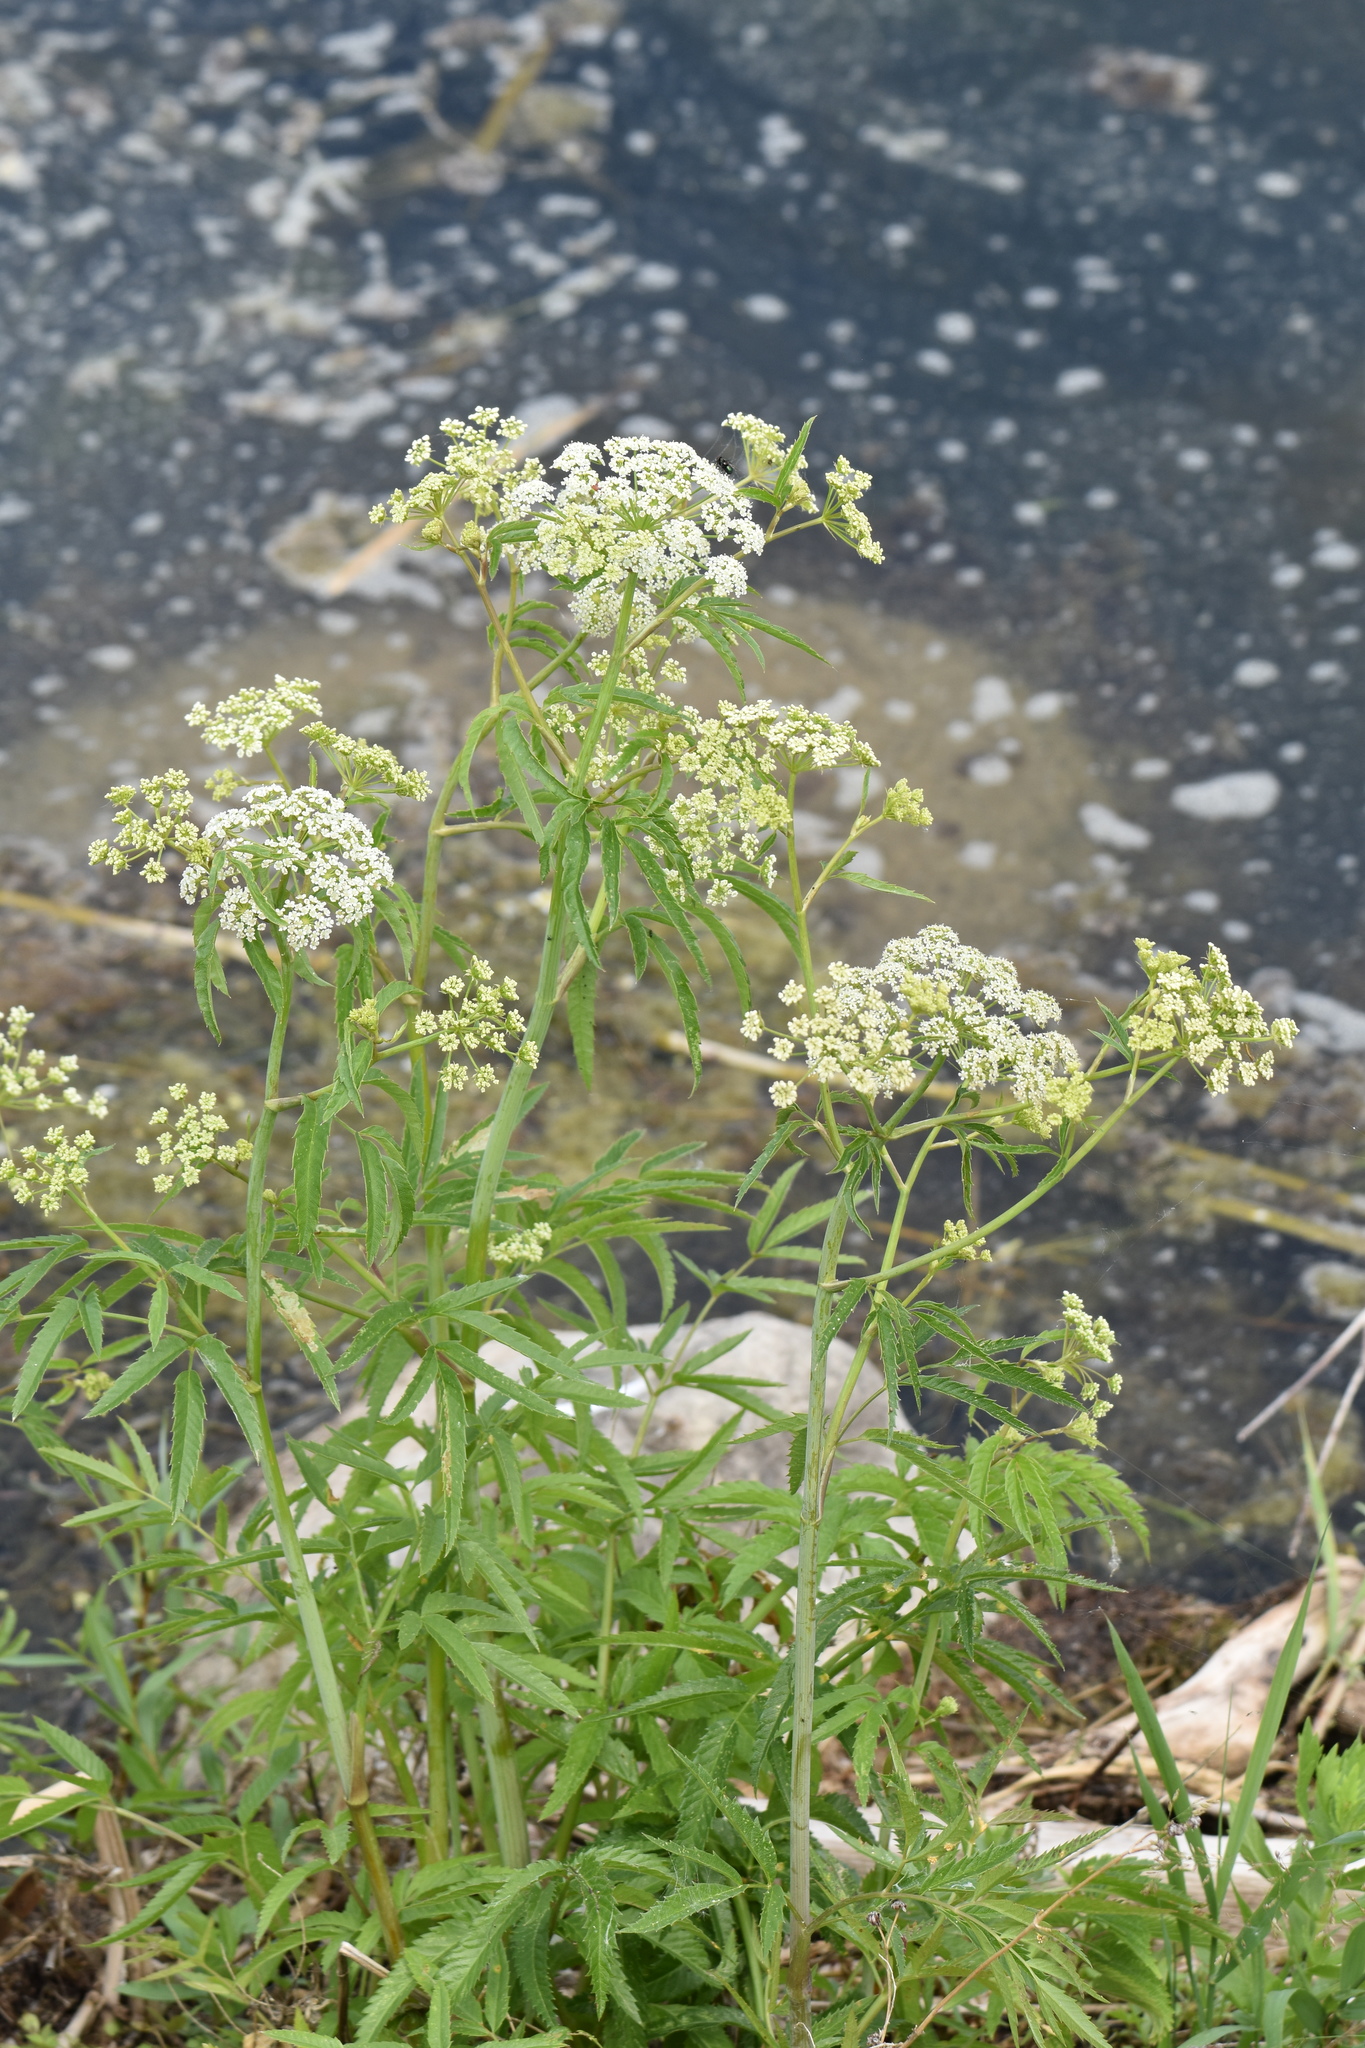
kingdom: Plantae
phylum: Tracheophyta
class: Magnoliopsida
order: Apiales
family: Apiaceae
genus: Cicuta
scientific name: Cicuta maculata
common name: Spotted cowbane
